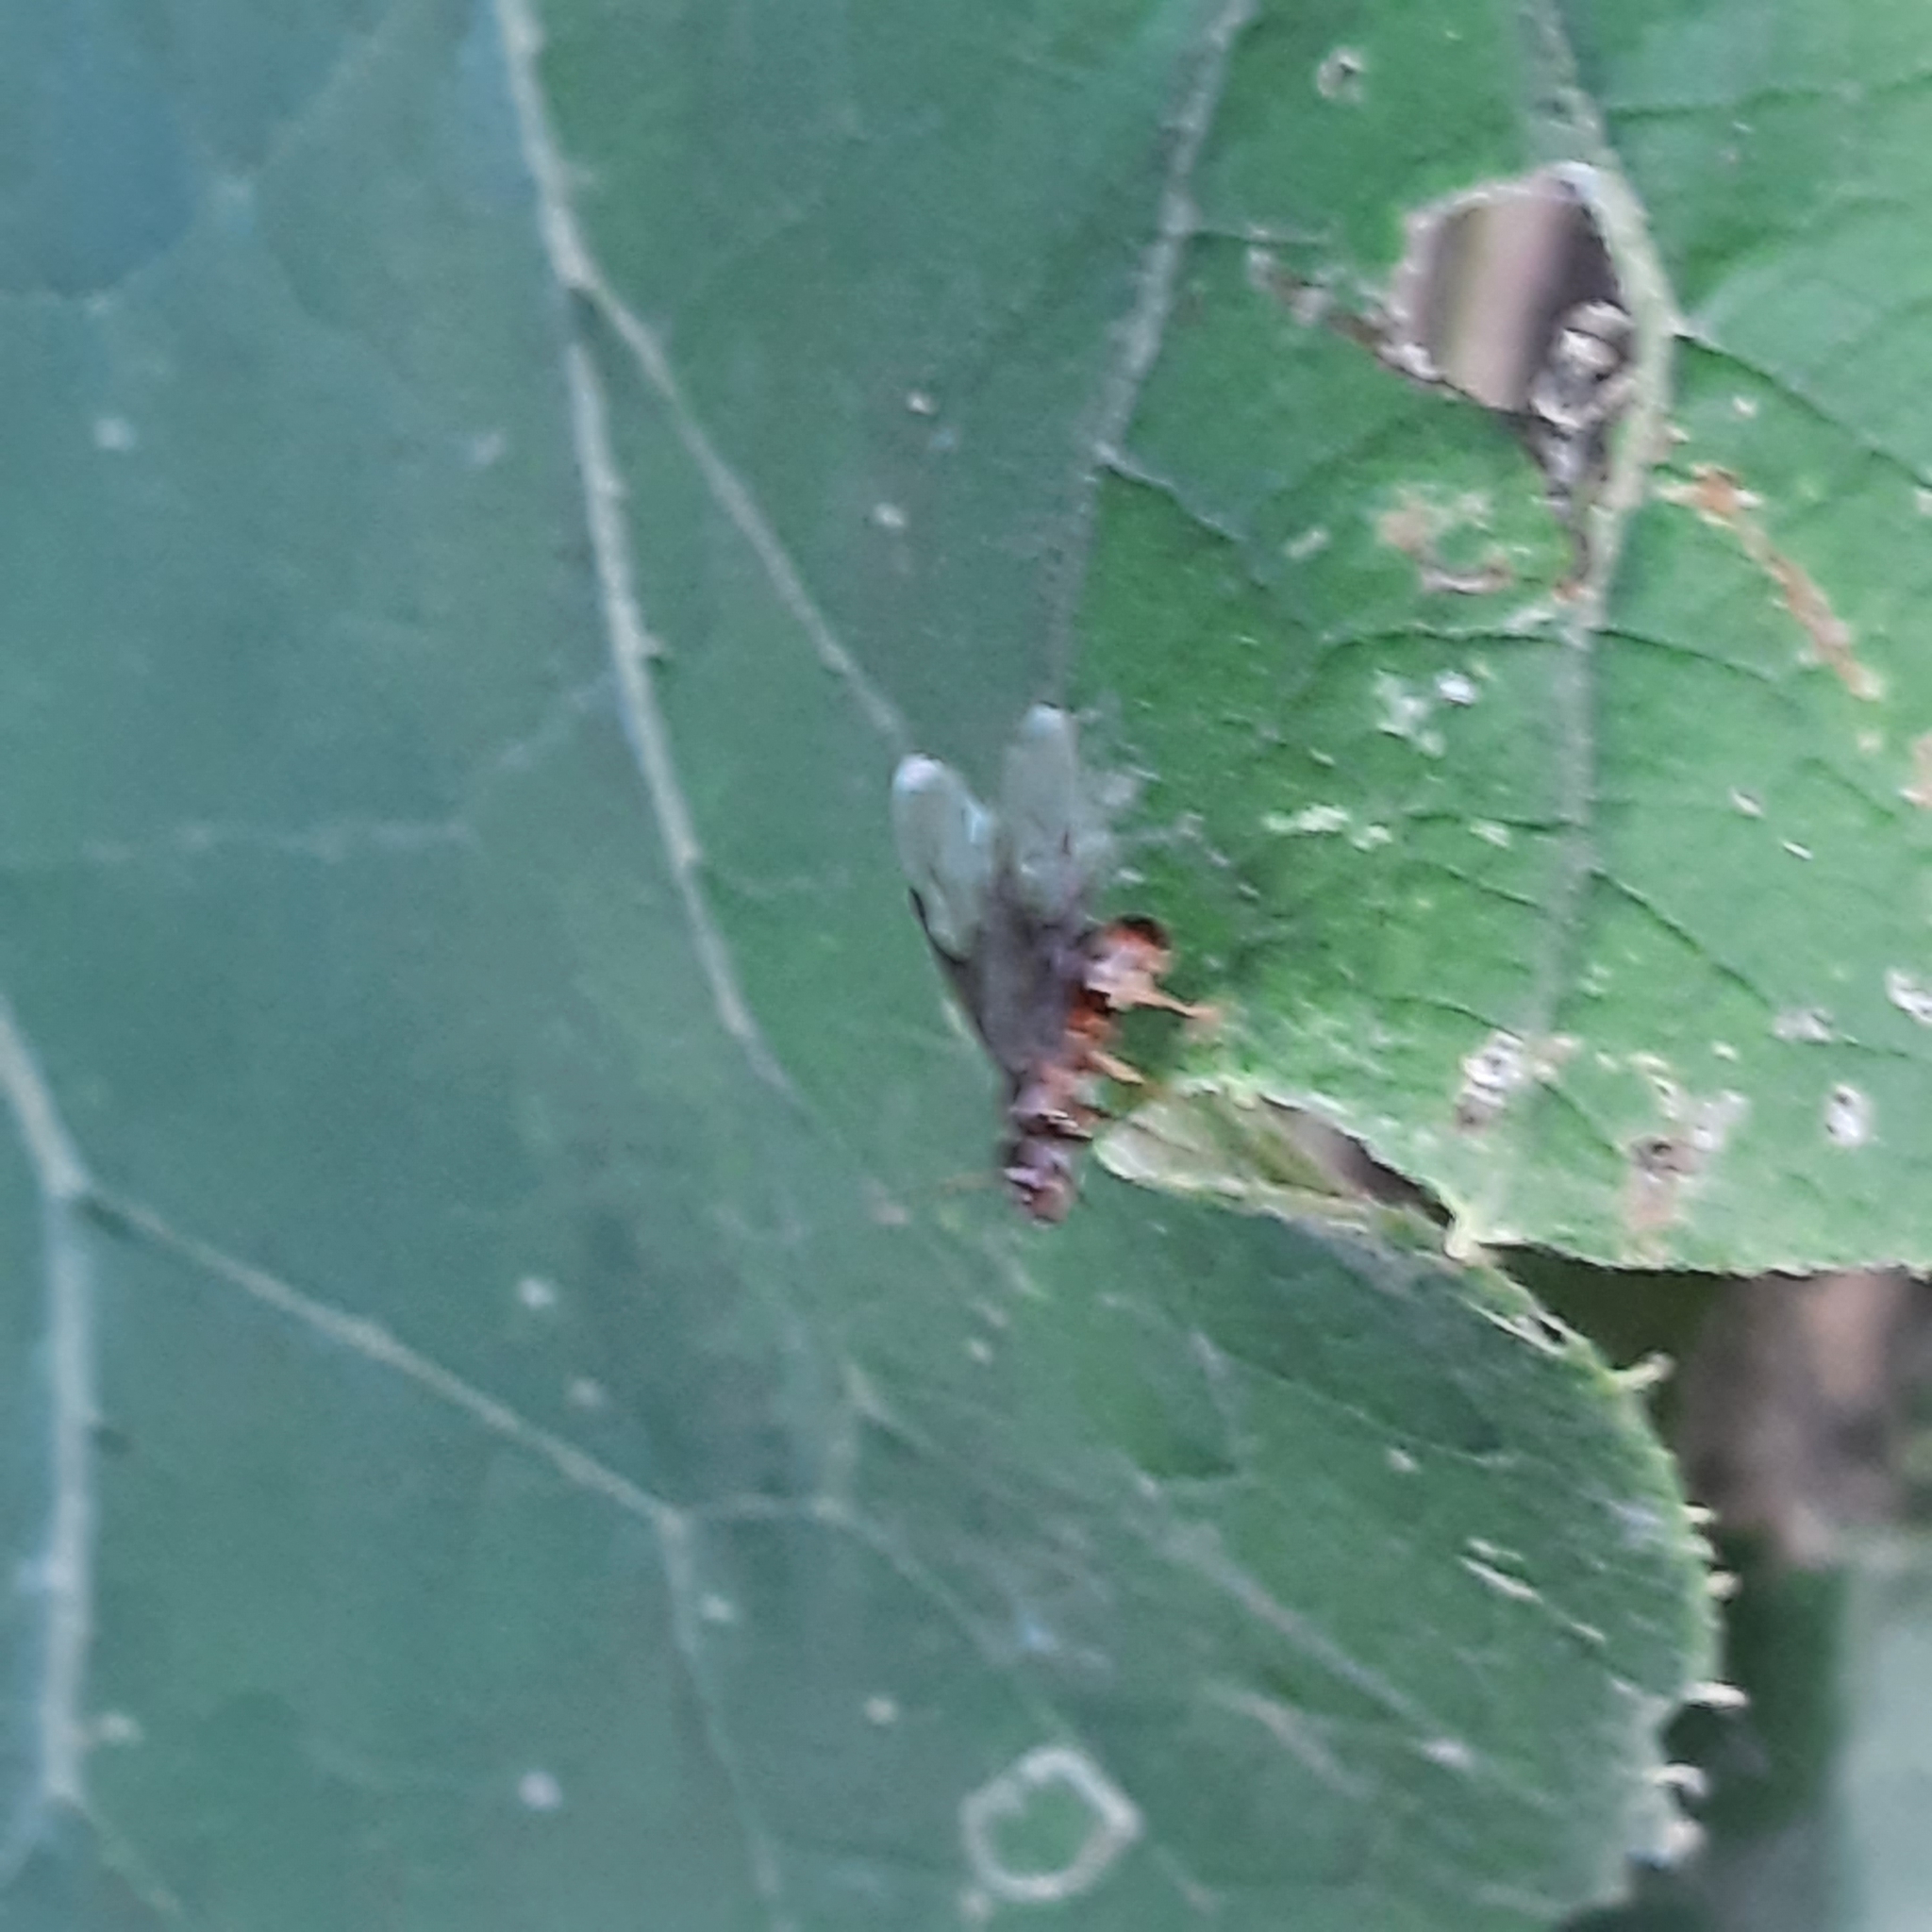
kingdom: Animalia
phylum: Arthropoda
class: Insecta
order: Hymenoptera
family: Formicidae
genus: Chthonolasius
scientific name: Chthonolasius
